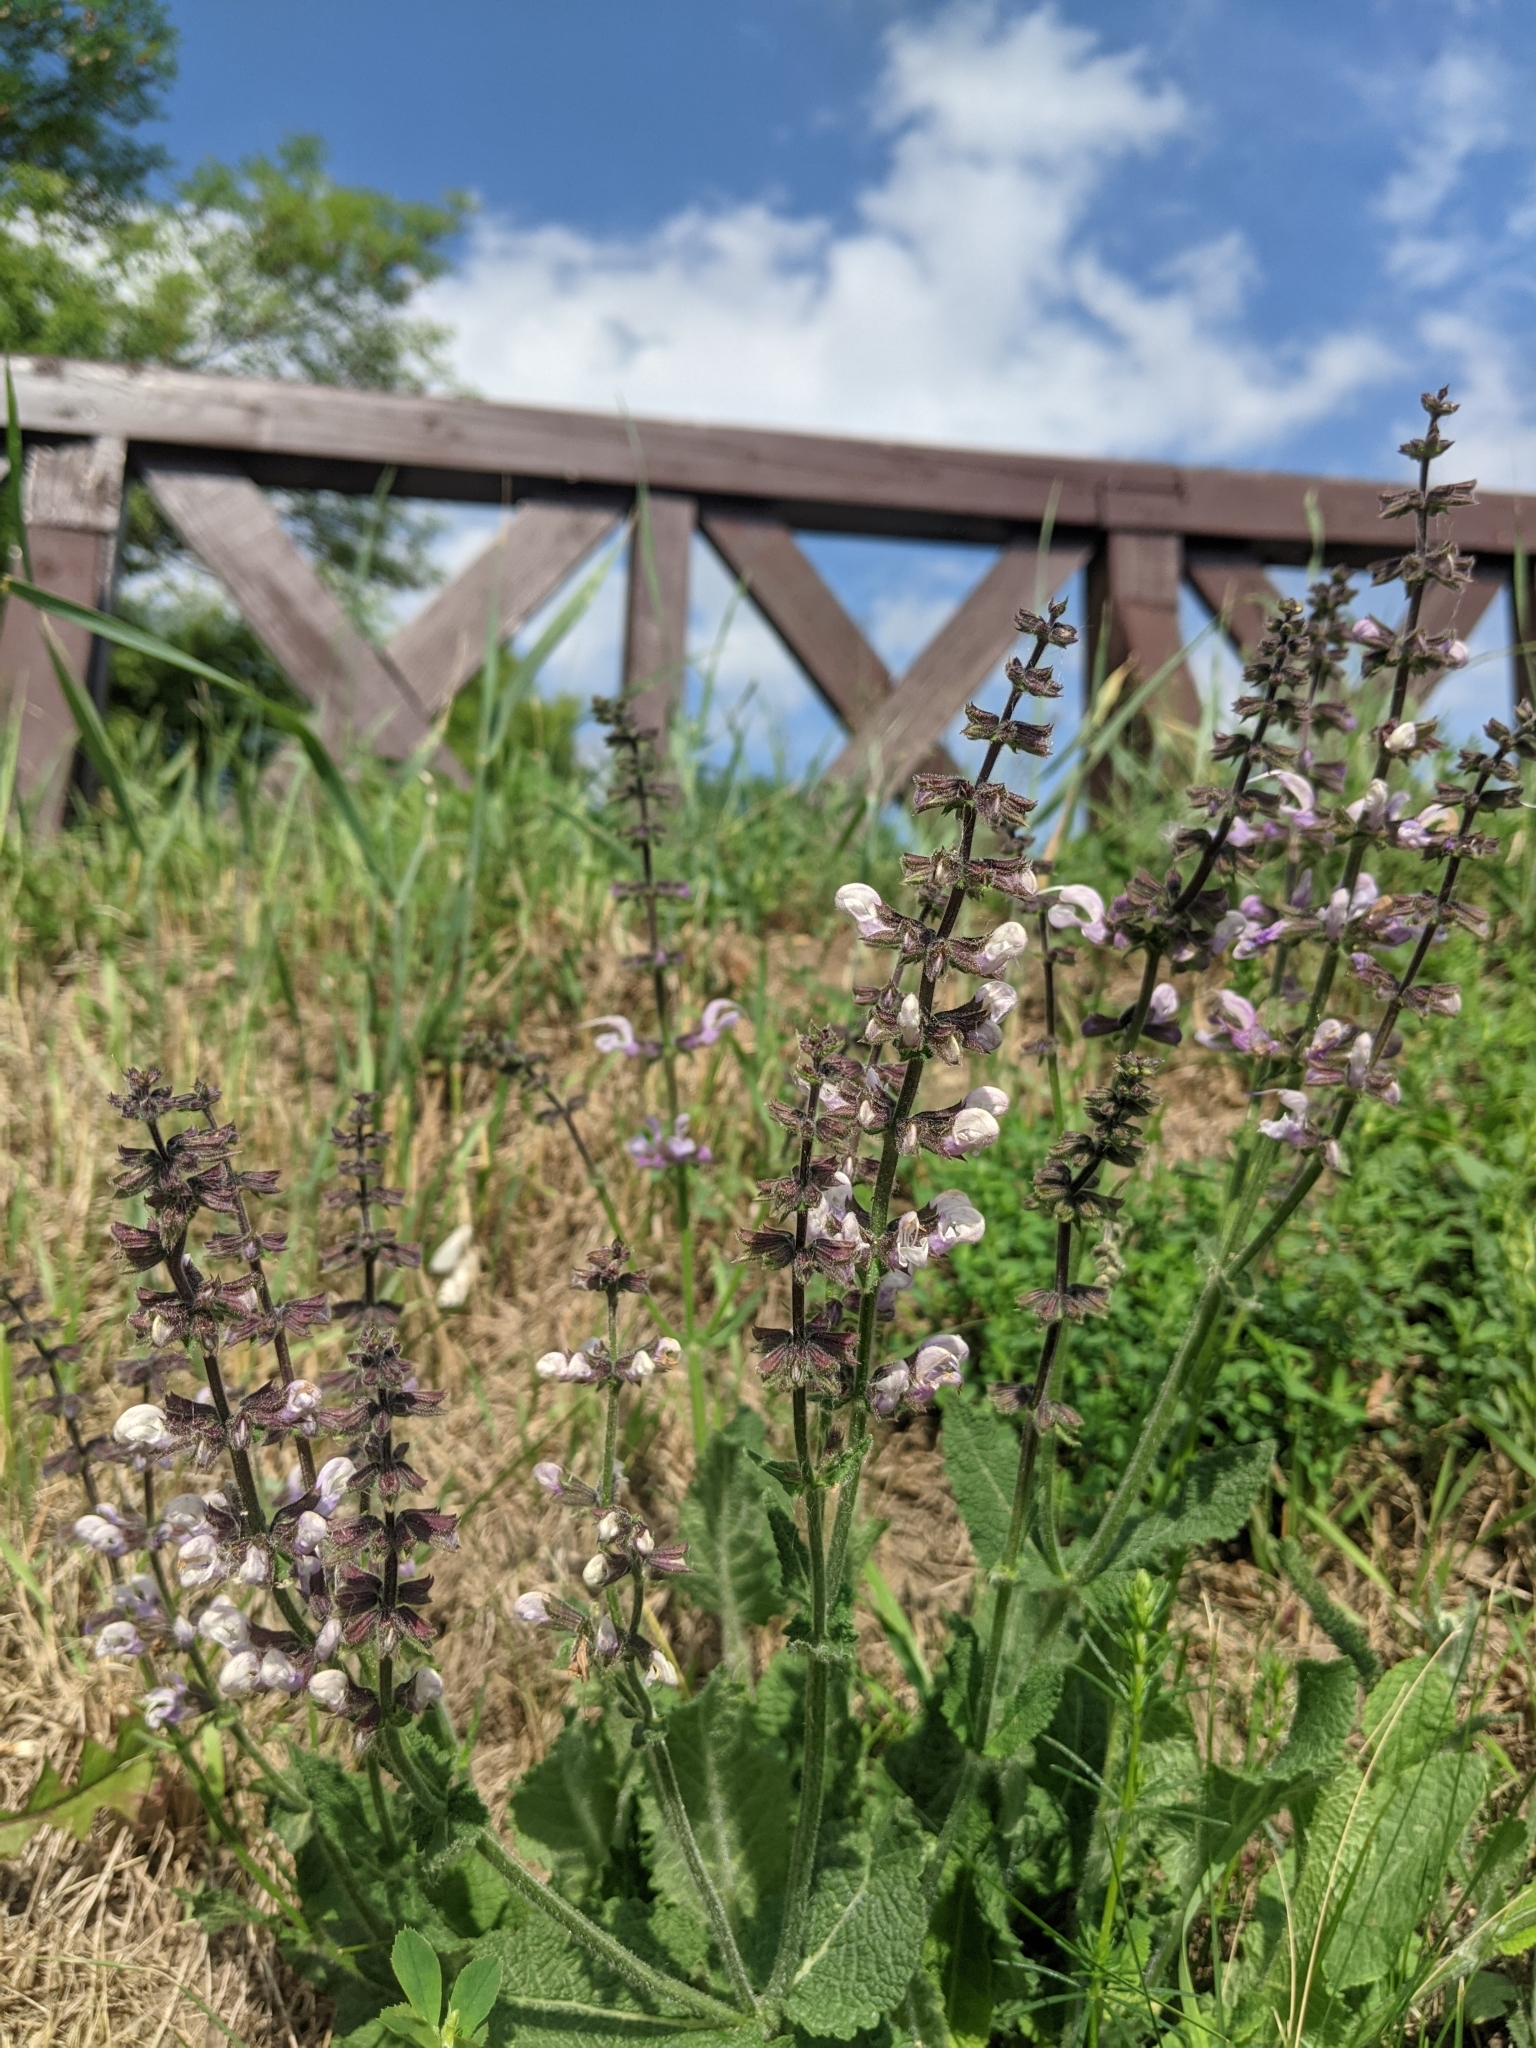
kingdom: Plantae
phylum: Tracheophyta
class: Magnoliopsida
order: Lamiales
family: Lamiaceae
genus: Salvia
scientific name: Salvia pratensis
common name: Meadow sage
